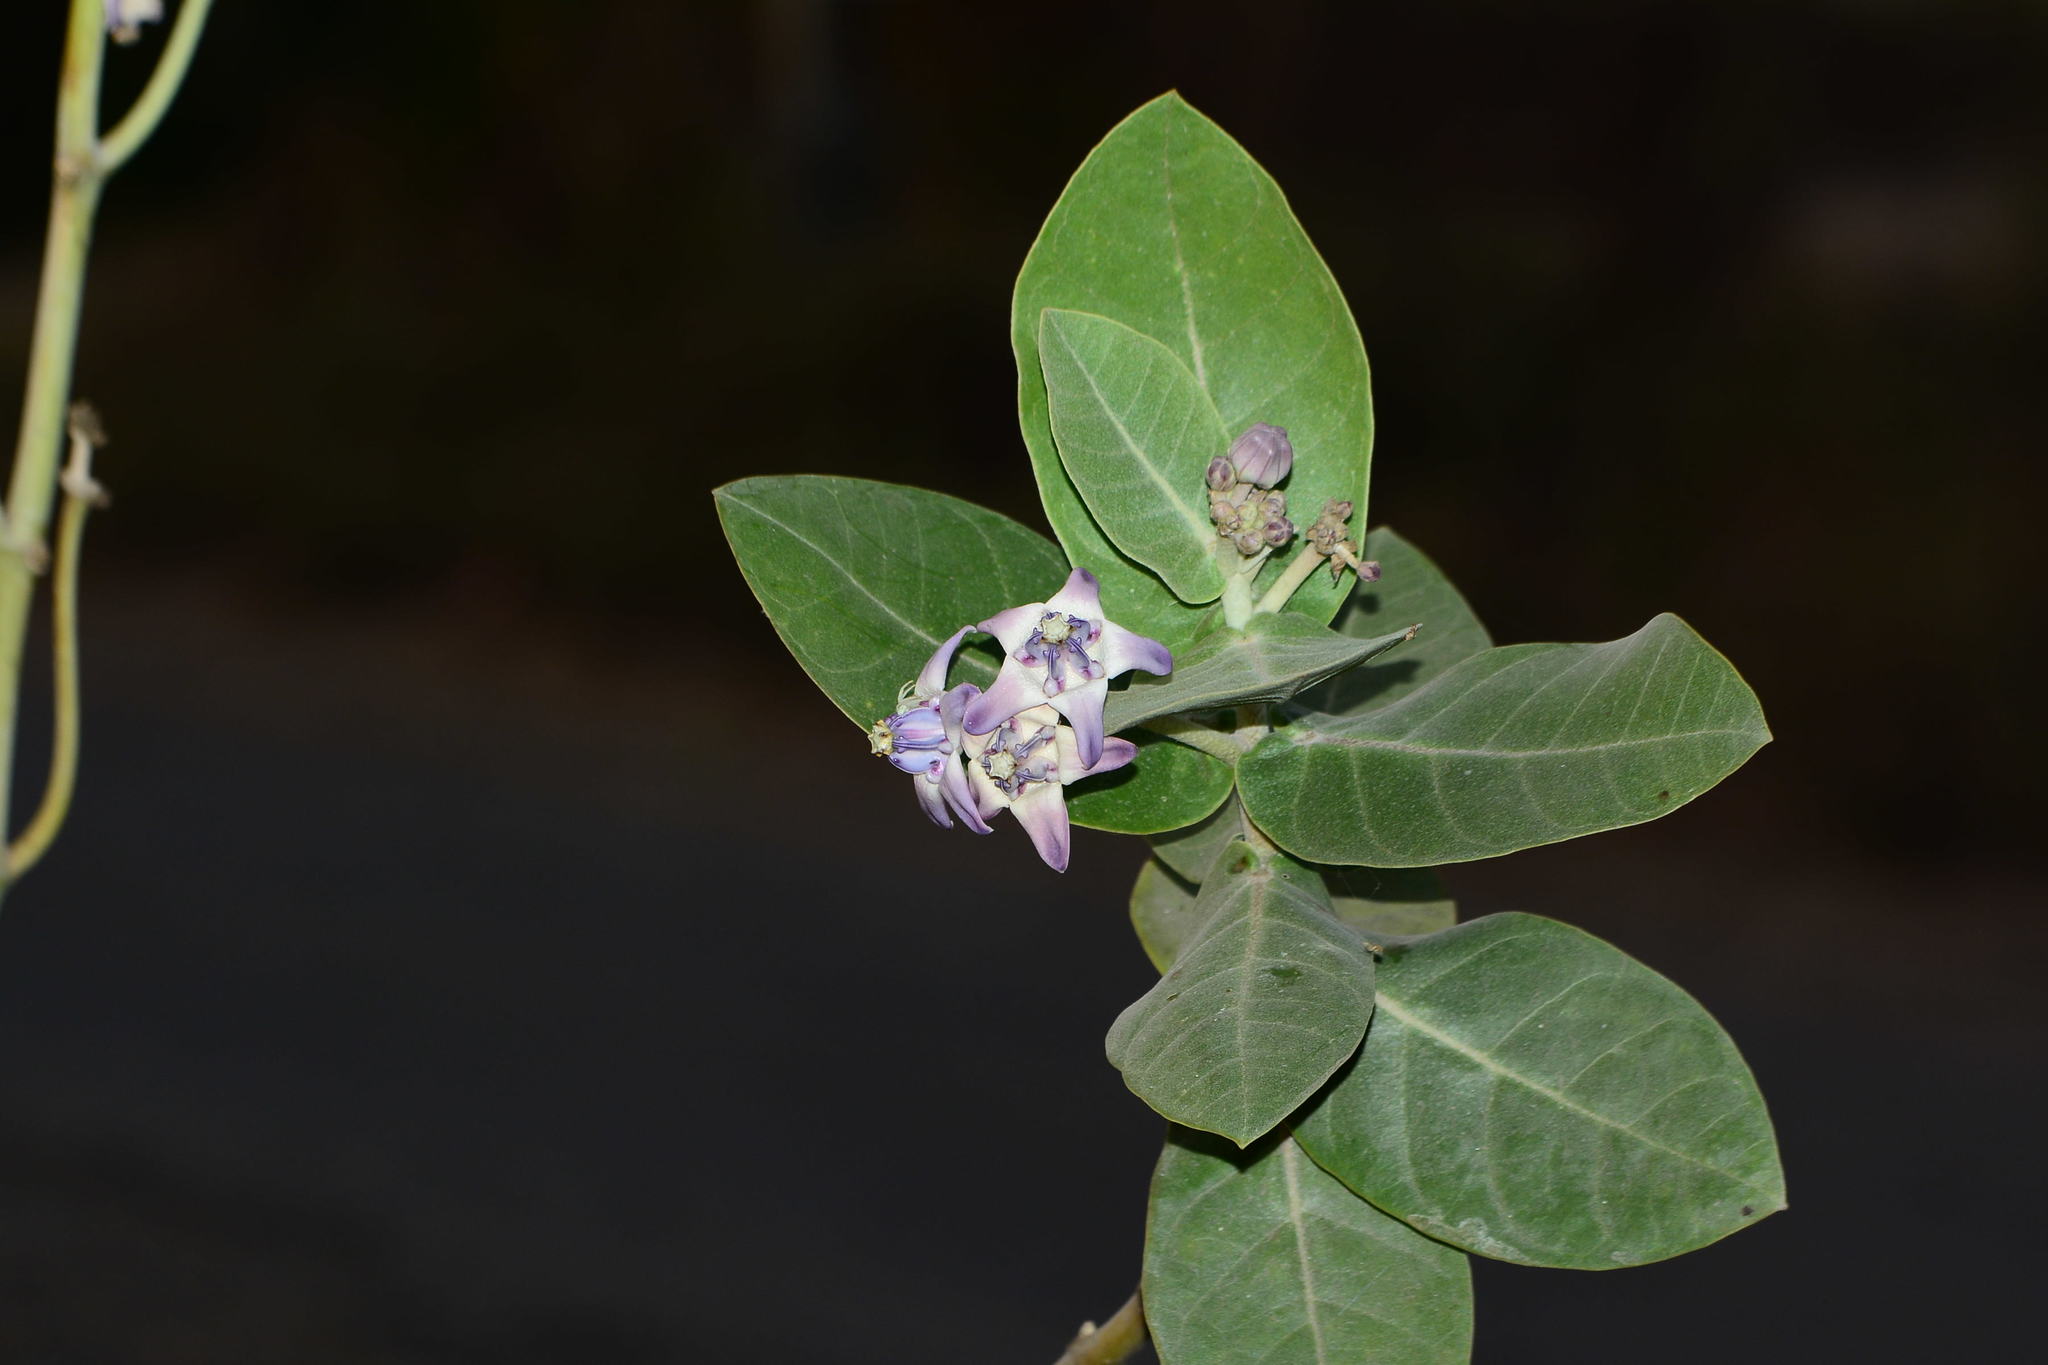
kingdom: Plantae
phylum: Tracheophyta
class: Magnoliopsida
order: Gentianales
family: Apocynaceae
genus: Calotropis
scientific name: Calotropis gigantea
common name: Crown flower
